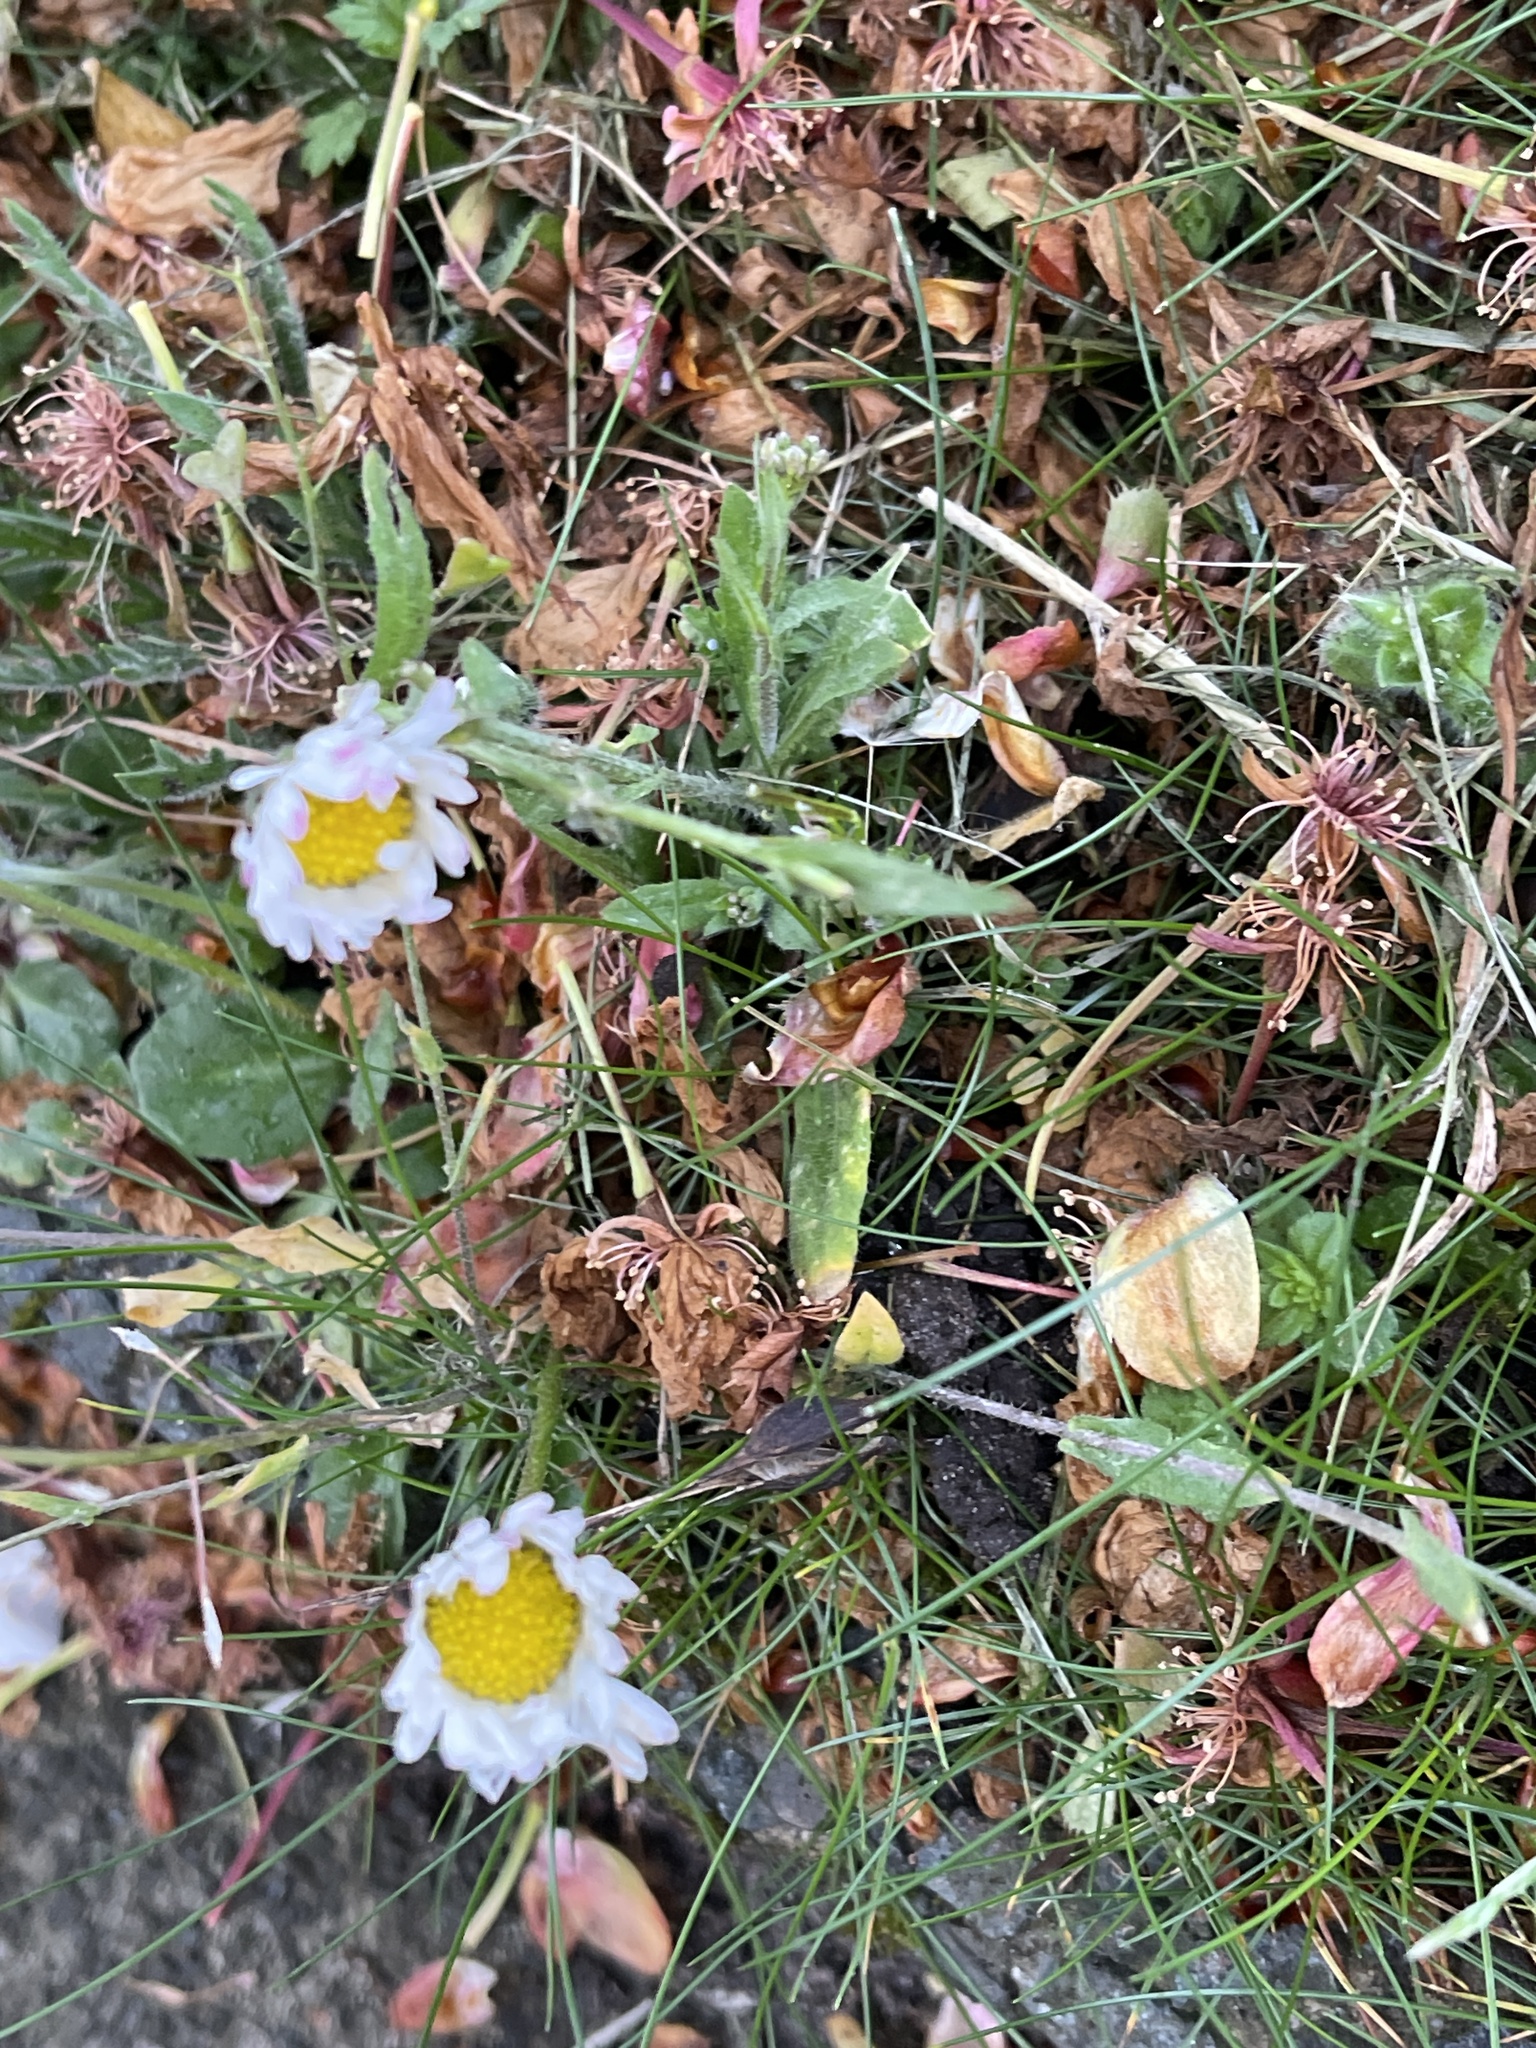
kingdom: Plantae
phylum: Tracheophyta
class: Magnoliopsida
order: Asterales
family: Asteraceae
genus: Bellis
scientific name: Bellis perennis
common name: Lawndaisy
